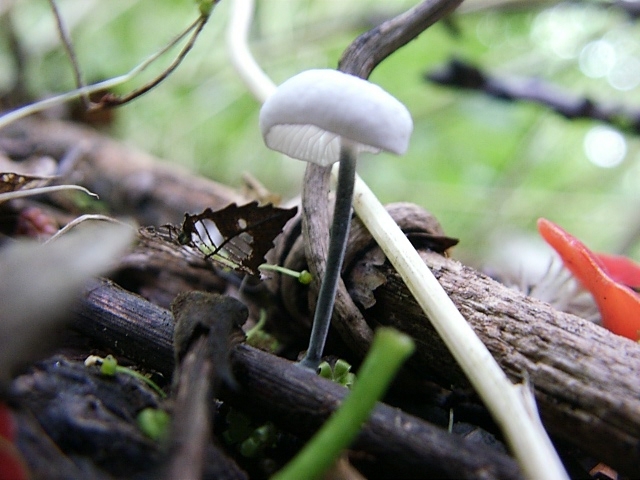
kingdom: Fungi
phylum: Basidiomycota
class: Agaricomycetes
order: Agaricales
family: Marasmiaceae
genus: Tetrapyrgos
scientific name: Tetrapyrgos nigripes
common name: Black-stalked marasmius
